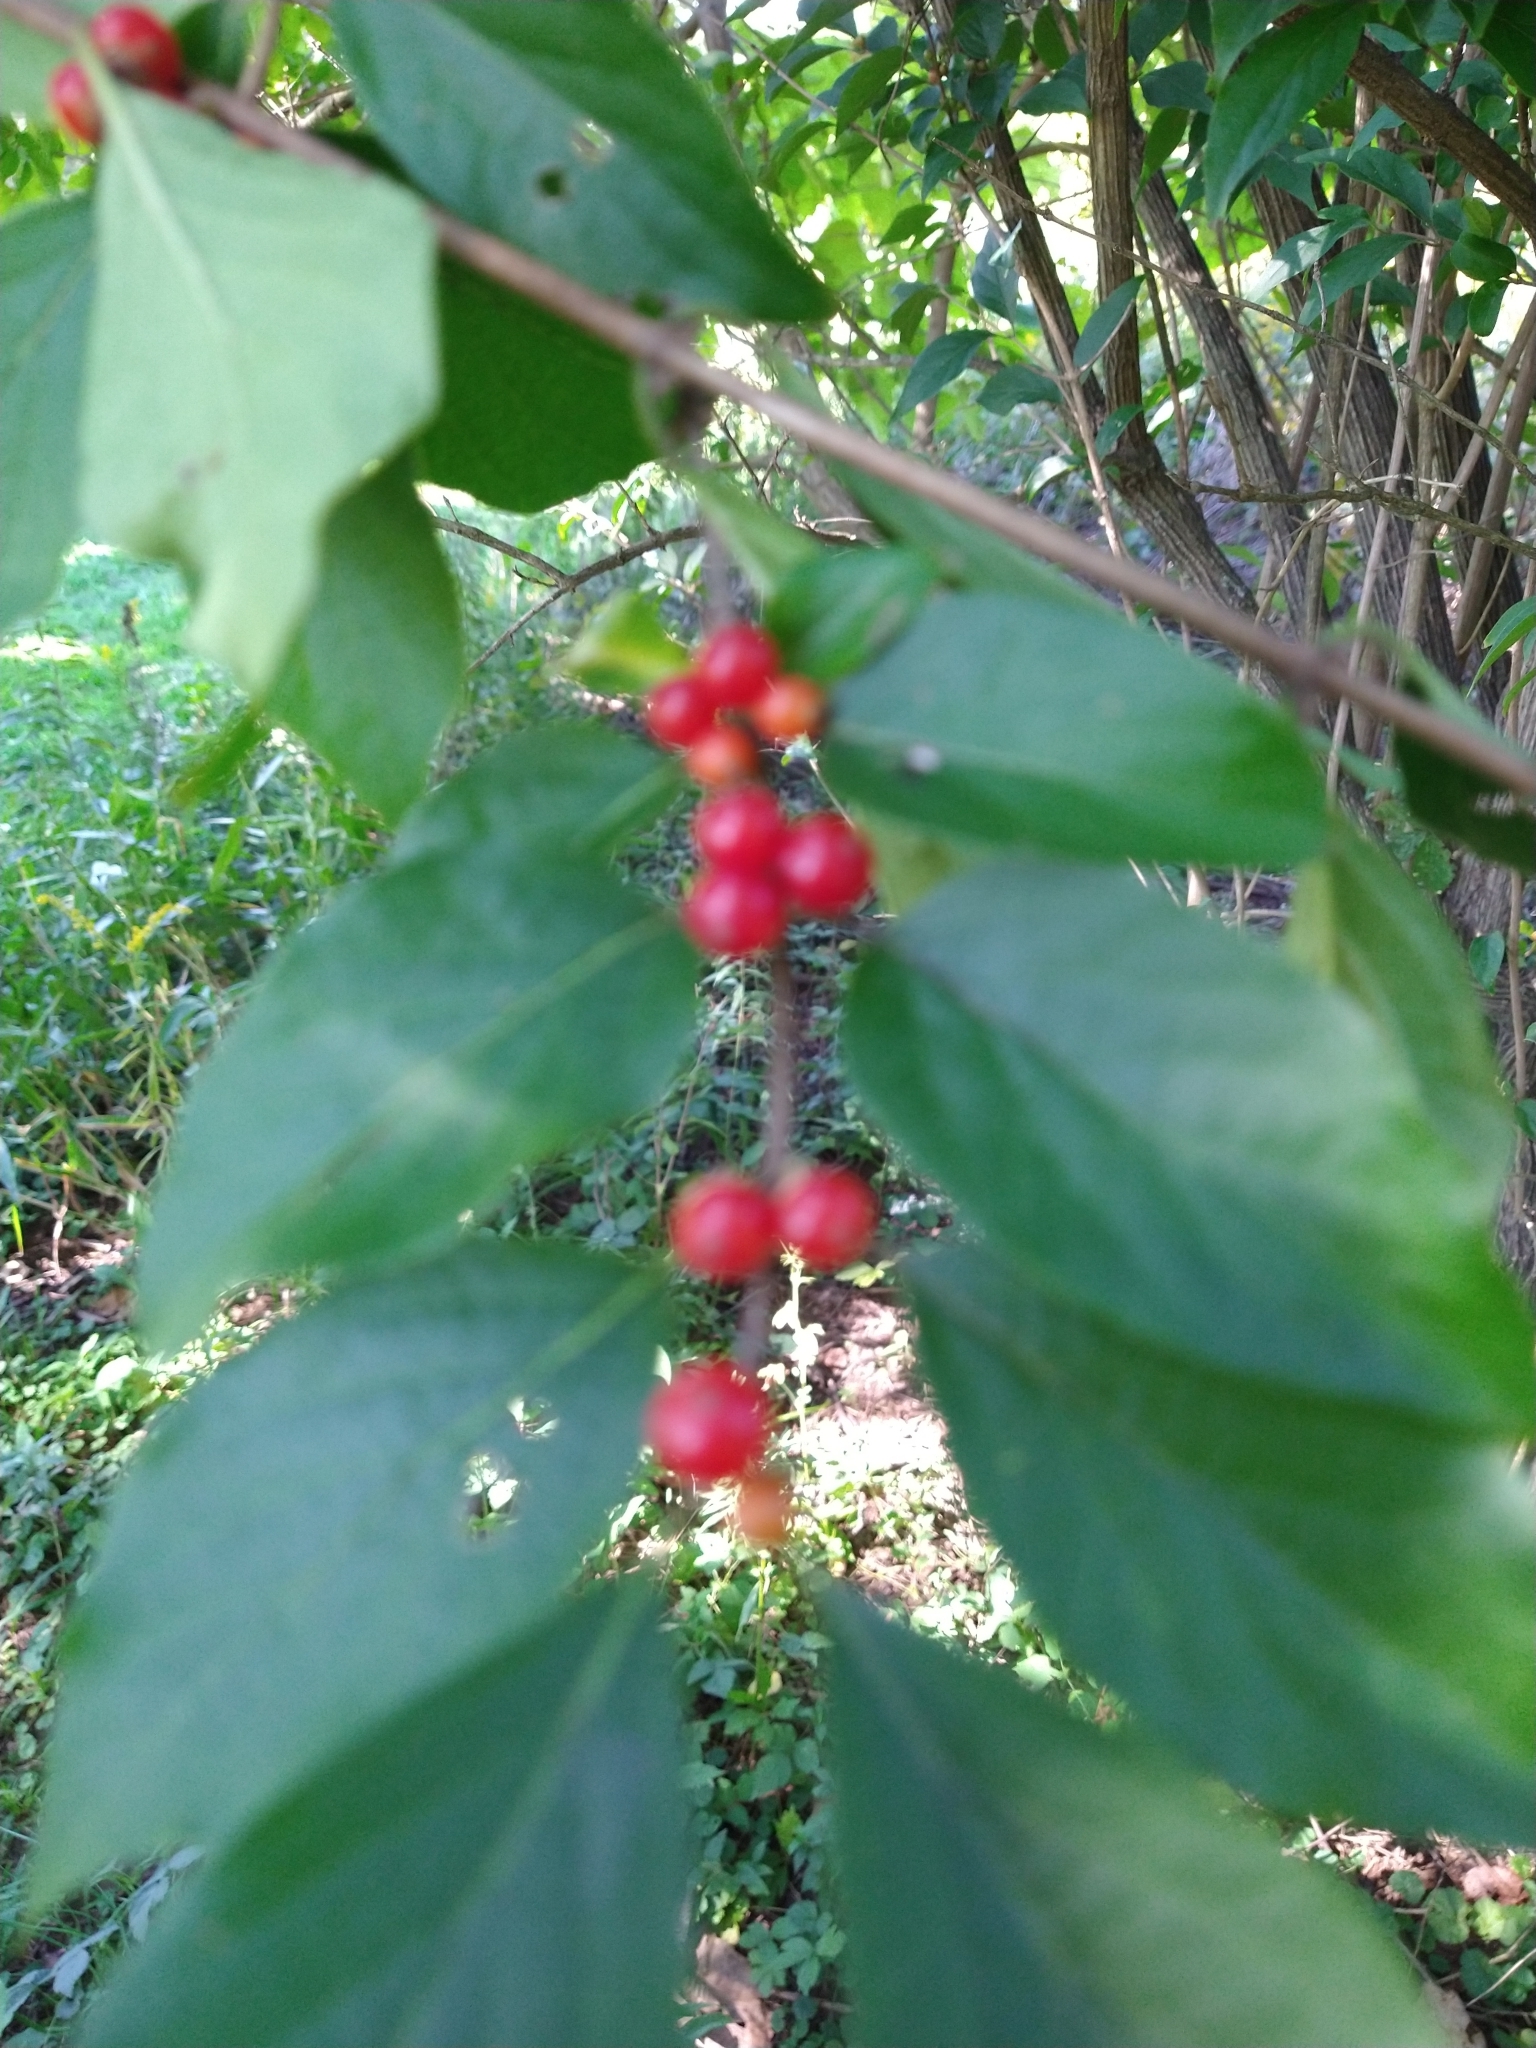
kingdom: Plantae
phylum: Tracheophyta
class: Magnoliopsida
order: Dipsacales
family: Caprifoliaceae
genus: Lonicera
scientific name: Lonicera maackii
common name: Amur honeysuckle
